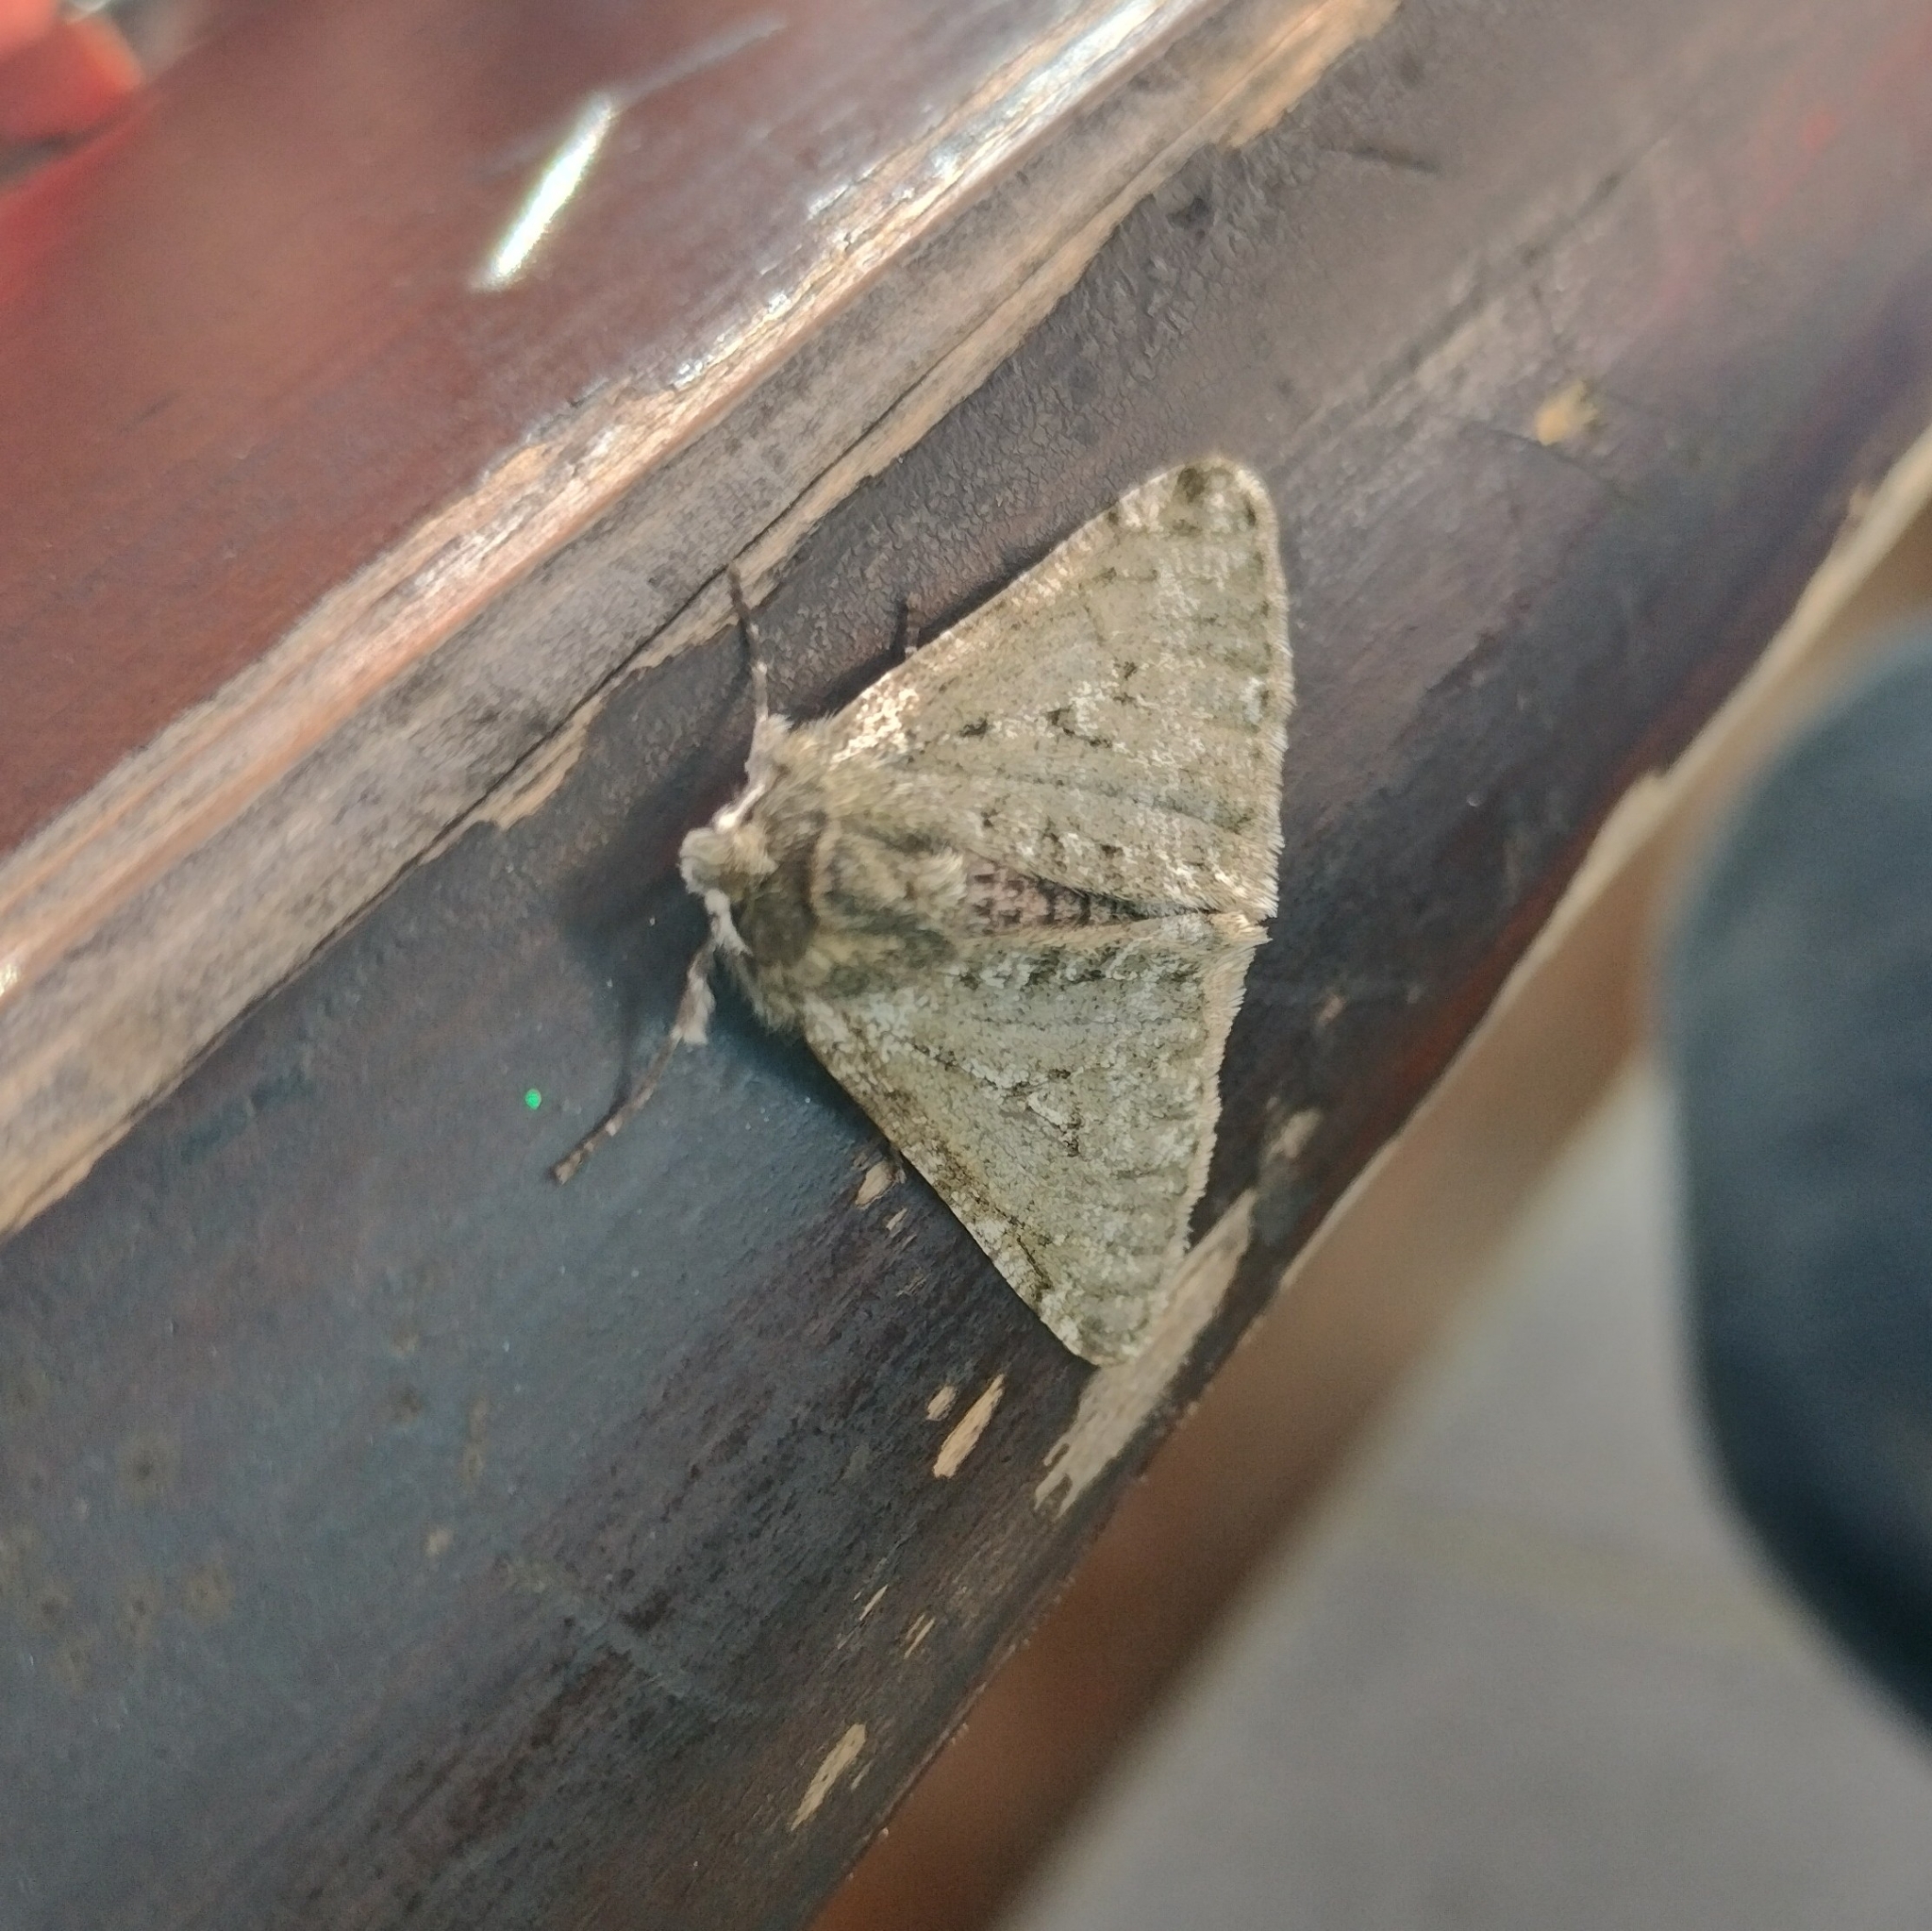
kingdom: Animalia
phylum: Arthropoda
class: Insecta
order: Lepidoptera
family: Geometridae
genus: Phigalia
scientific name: Phigalia pilosaria
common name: Pale brindled beauty
